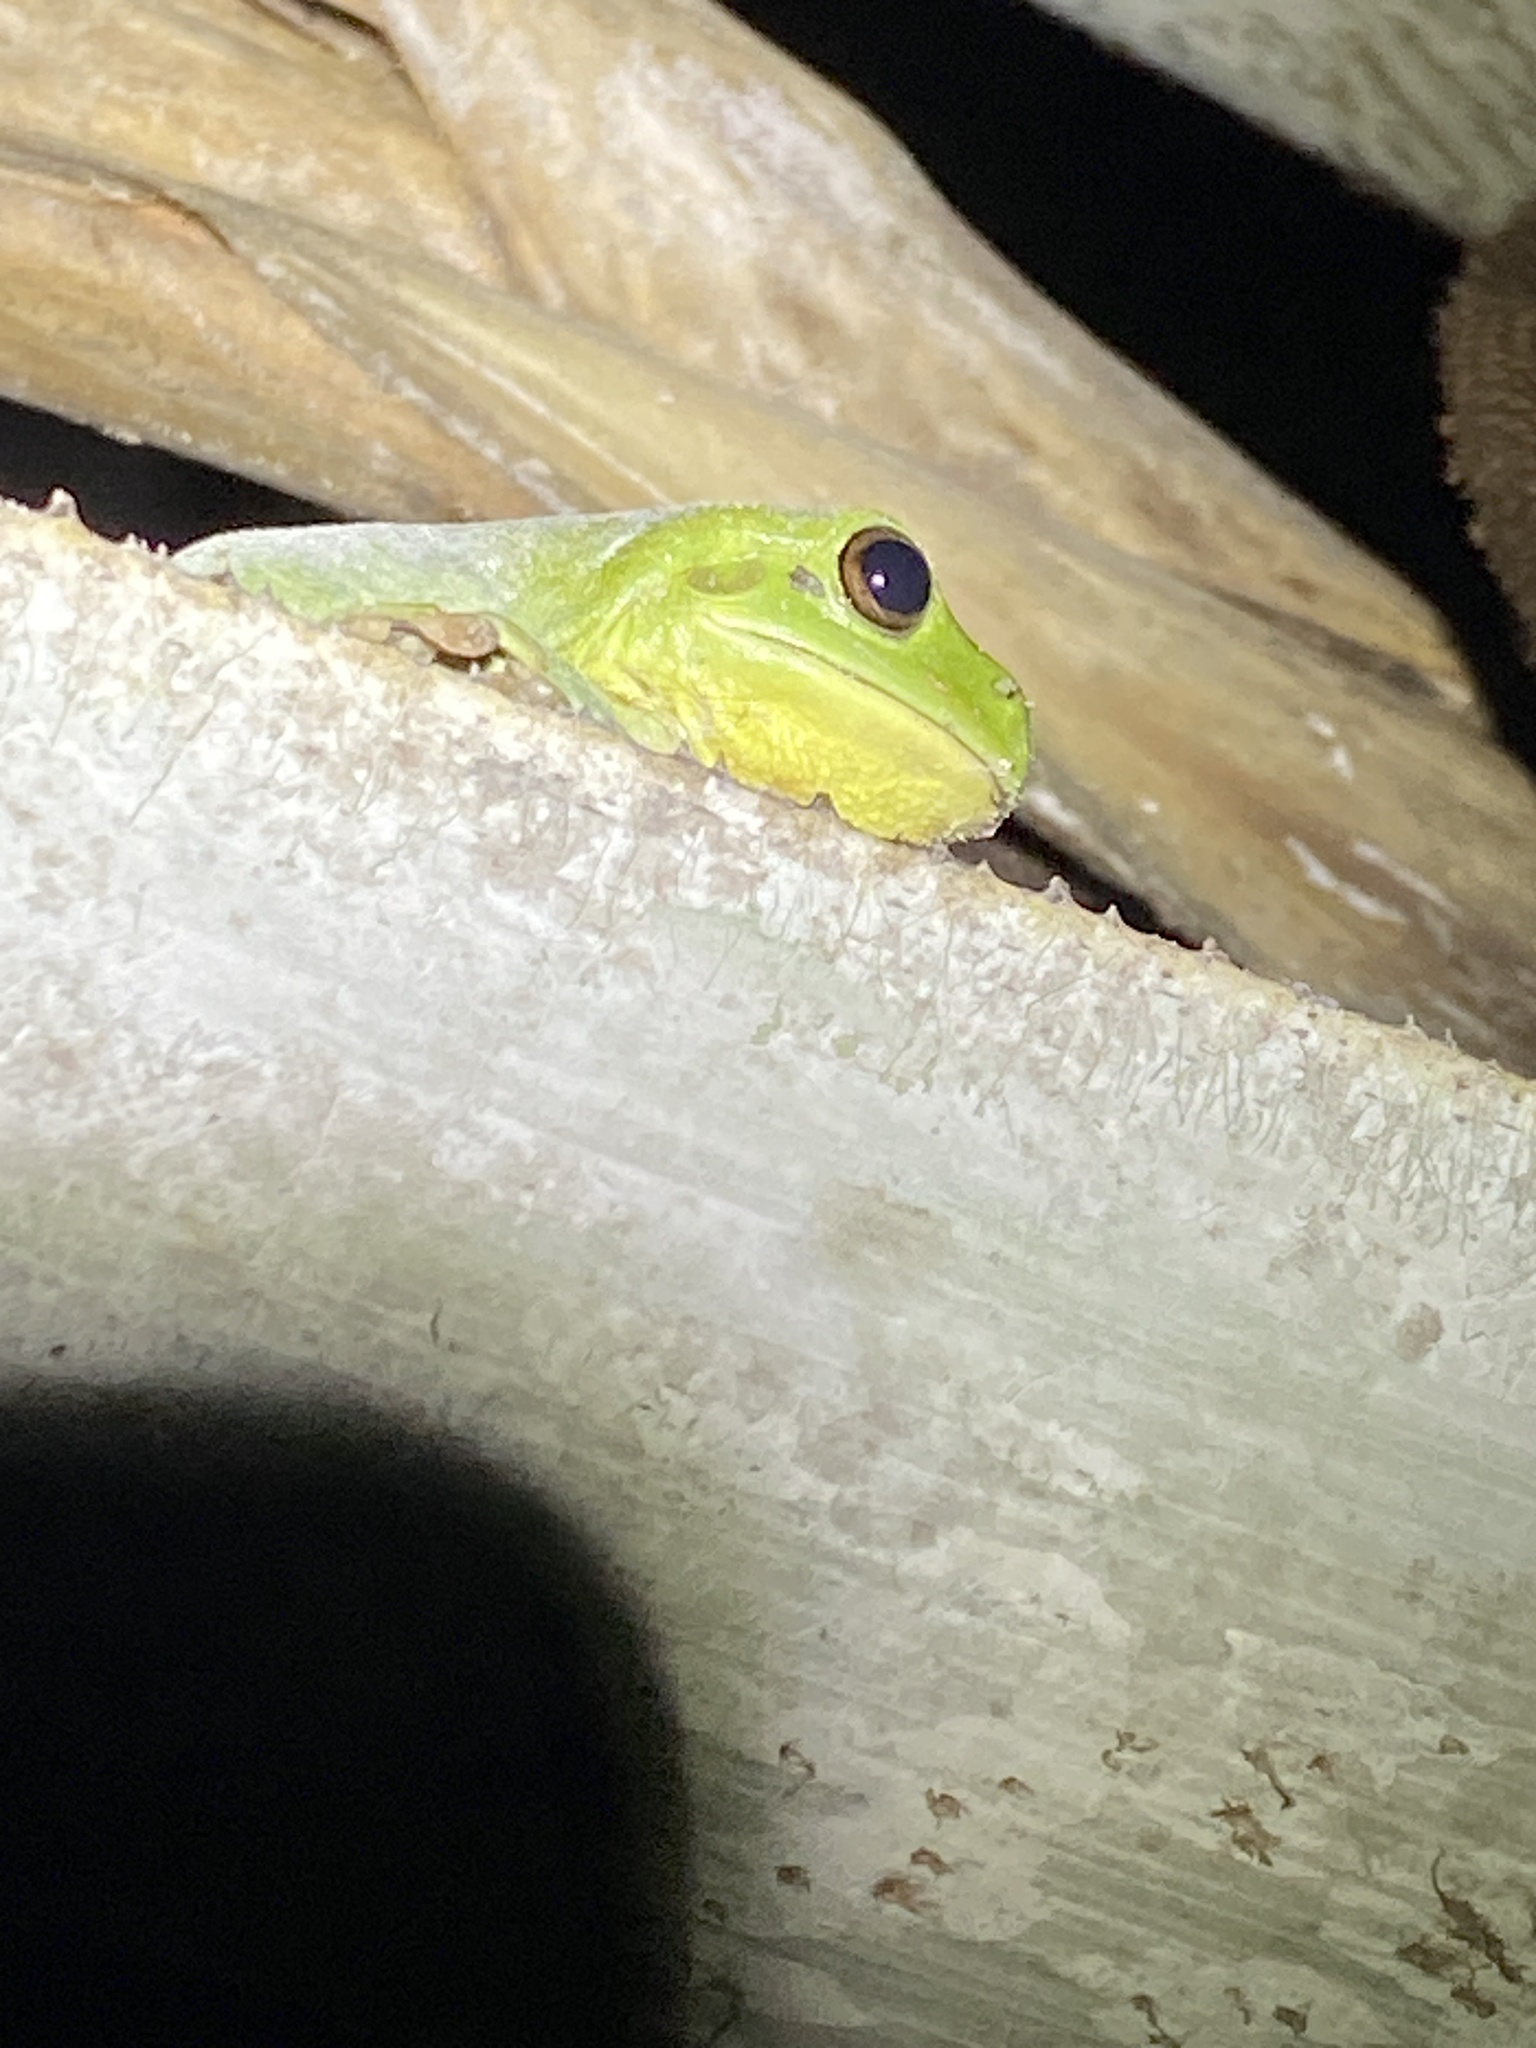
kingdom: Animalia
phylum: Chordata
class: Amphibia
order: Anura
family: Pelodryadidae
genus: Ranoidea
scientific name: Ranoidea caerulea
